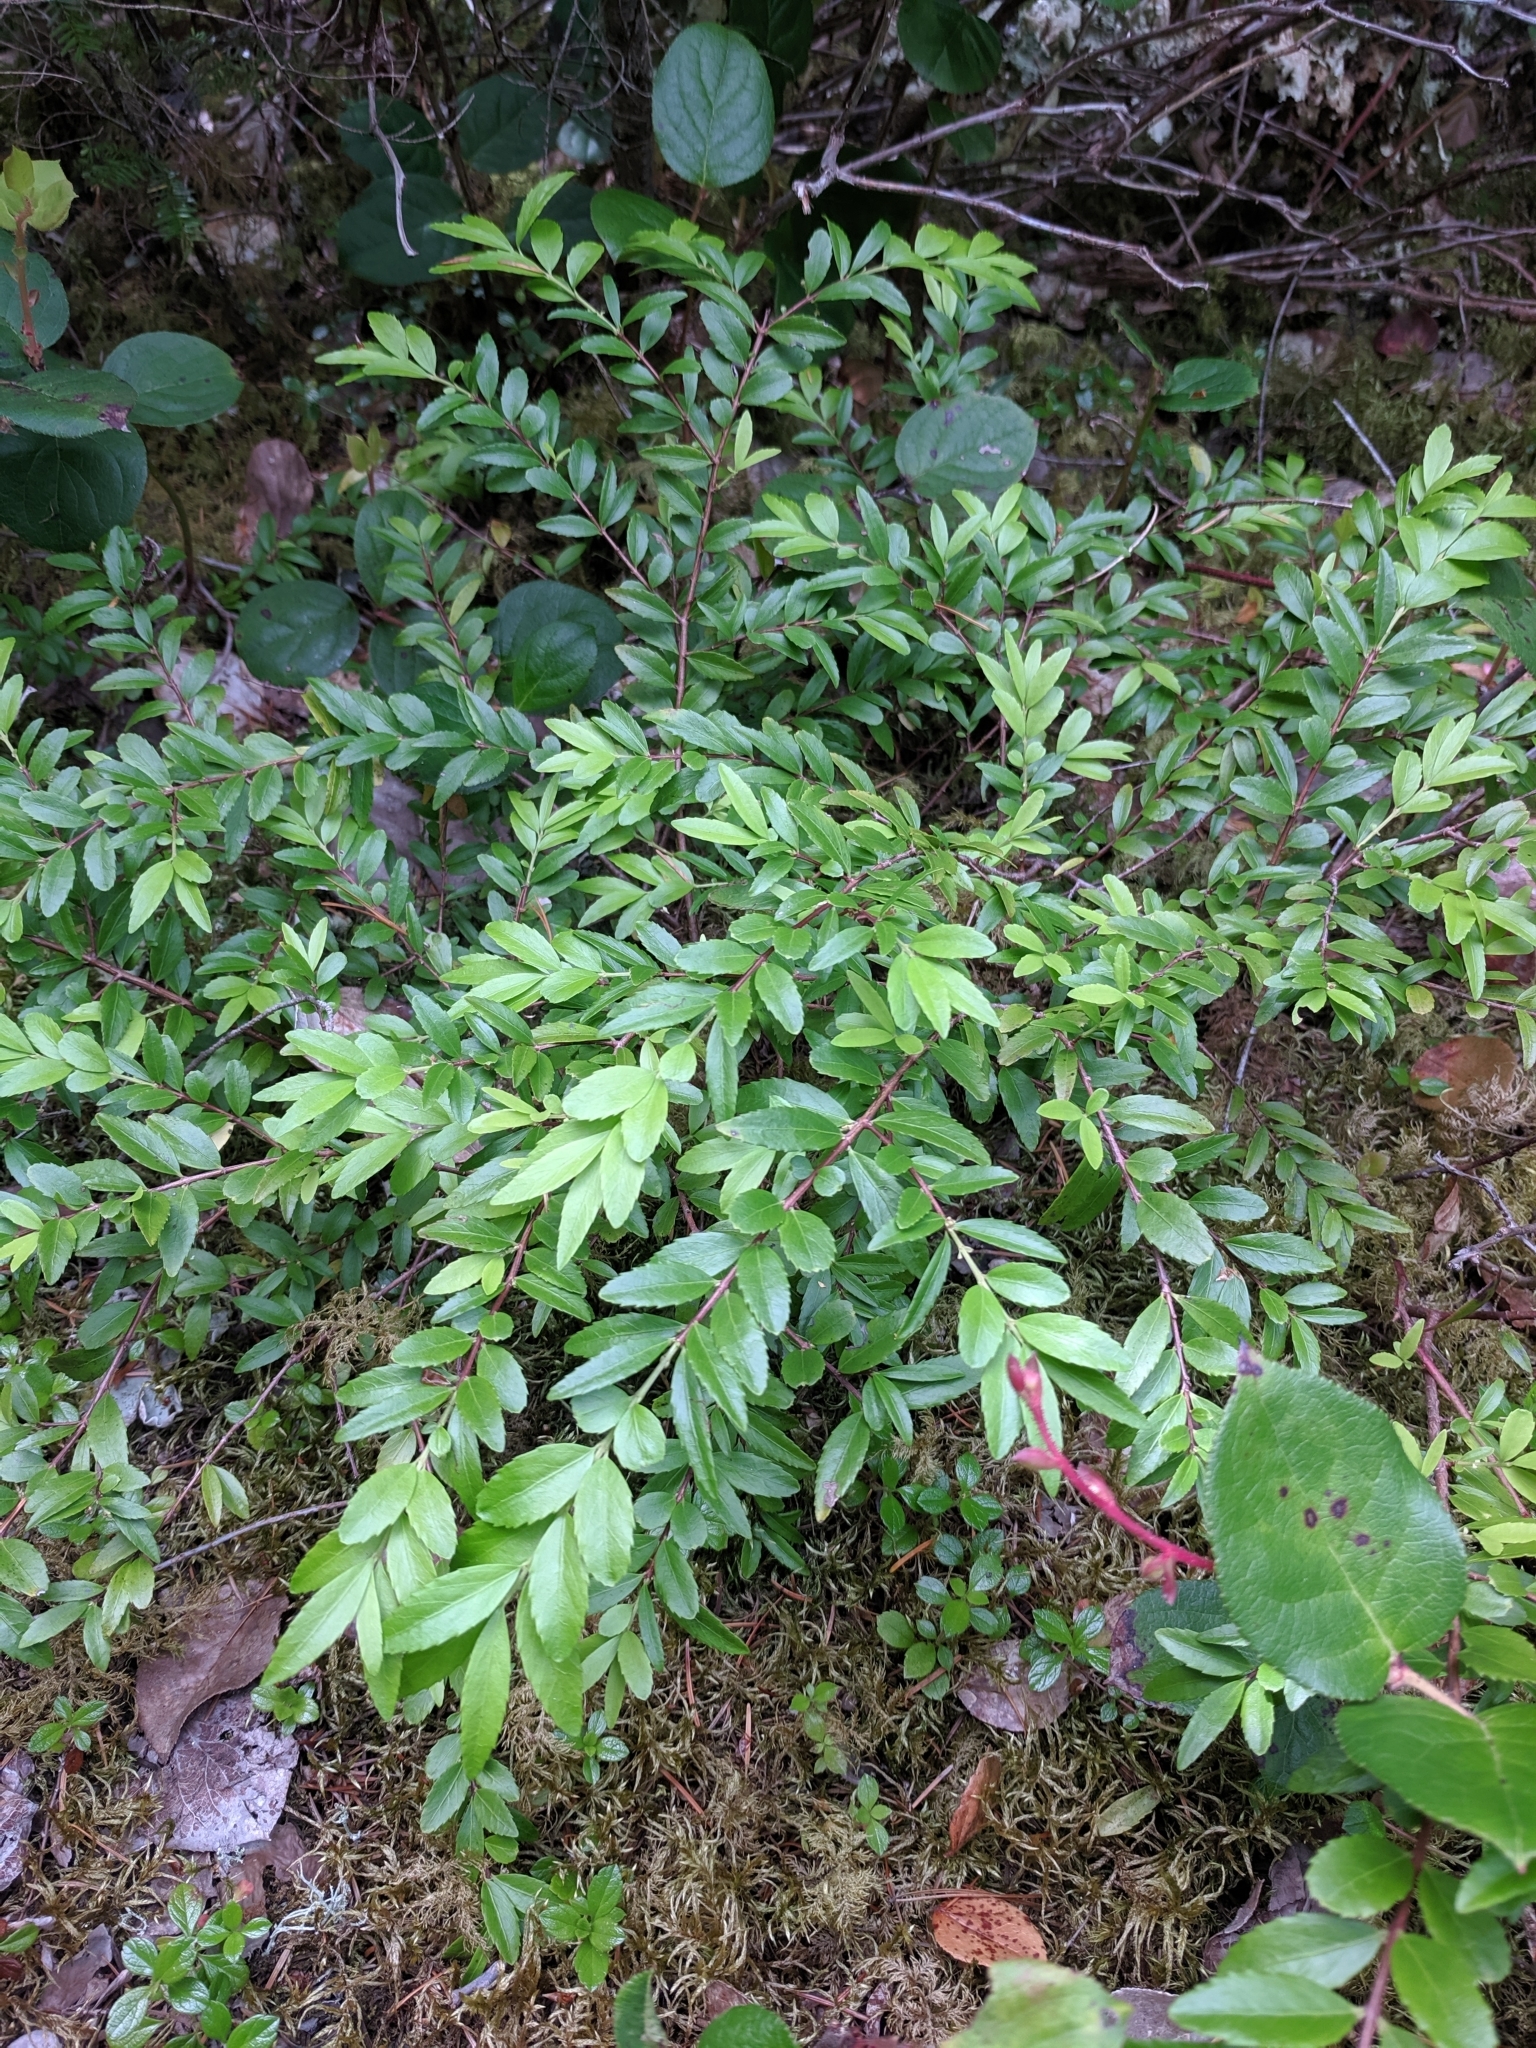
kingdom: Plantae
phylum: Tracheophyta
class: Magnoliopsida
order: Celastrales
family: Celastraceae
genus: Paxistima
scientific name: Paxistima myrsinites
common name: Mountain-lover
